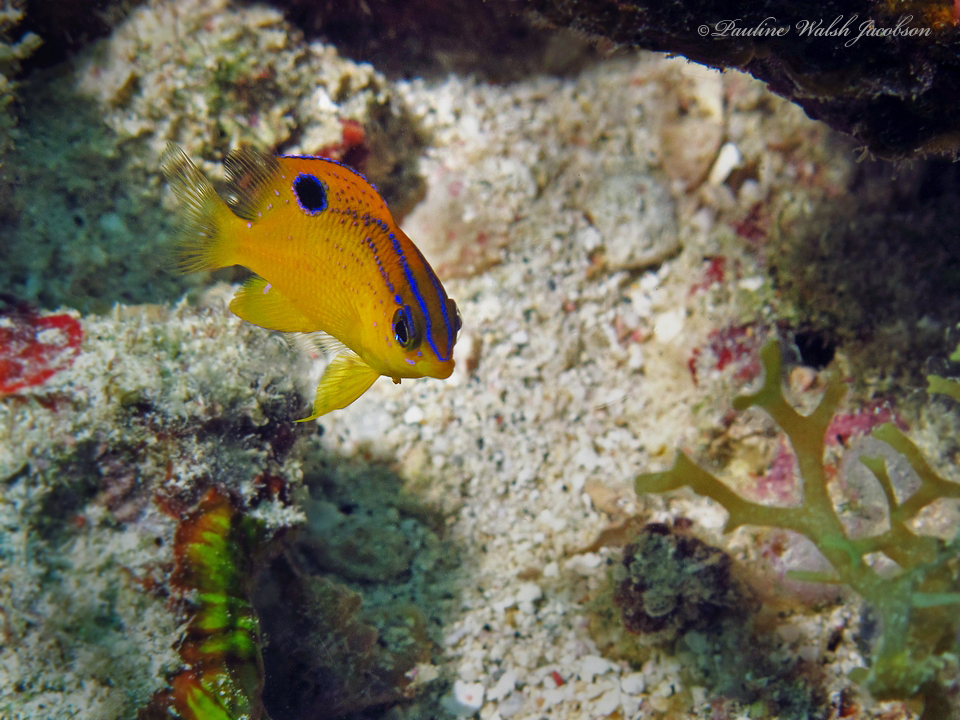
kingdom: Animalia
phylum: Chordata
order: Perciformes
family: Pomacentridae
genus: Stegastes
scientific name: Stegastes diencaeus
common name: Longfin damselfish
